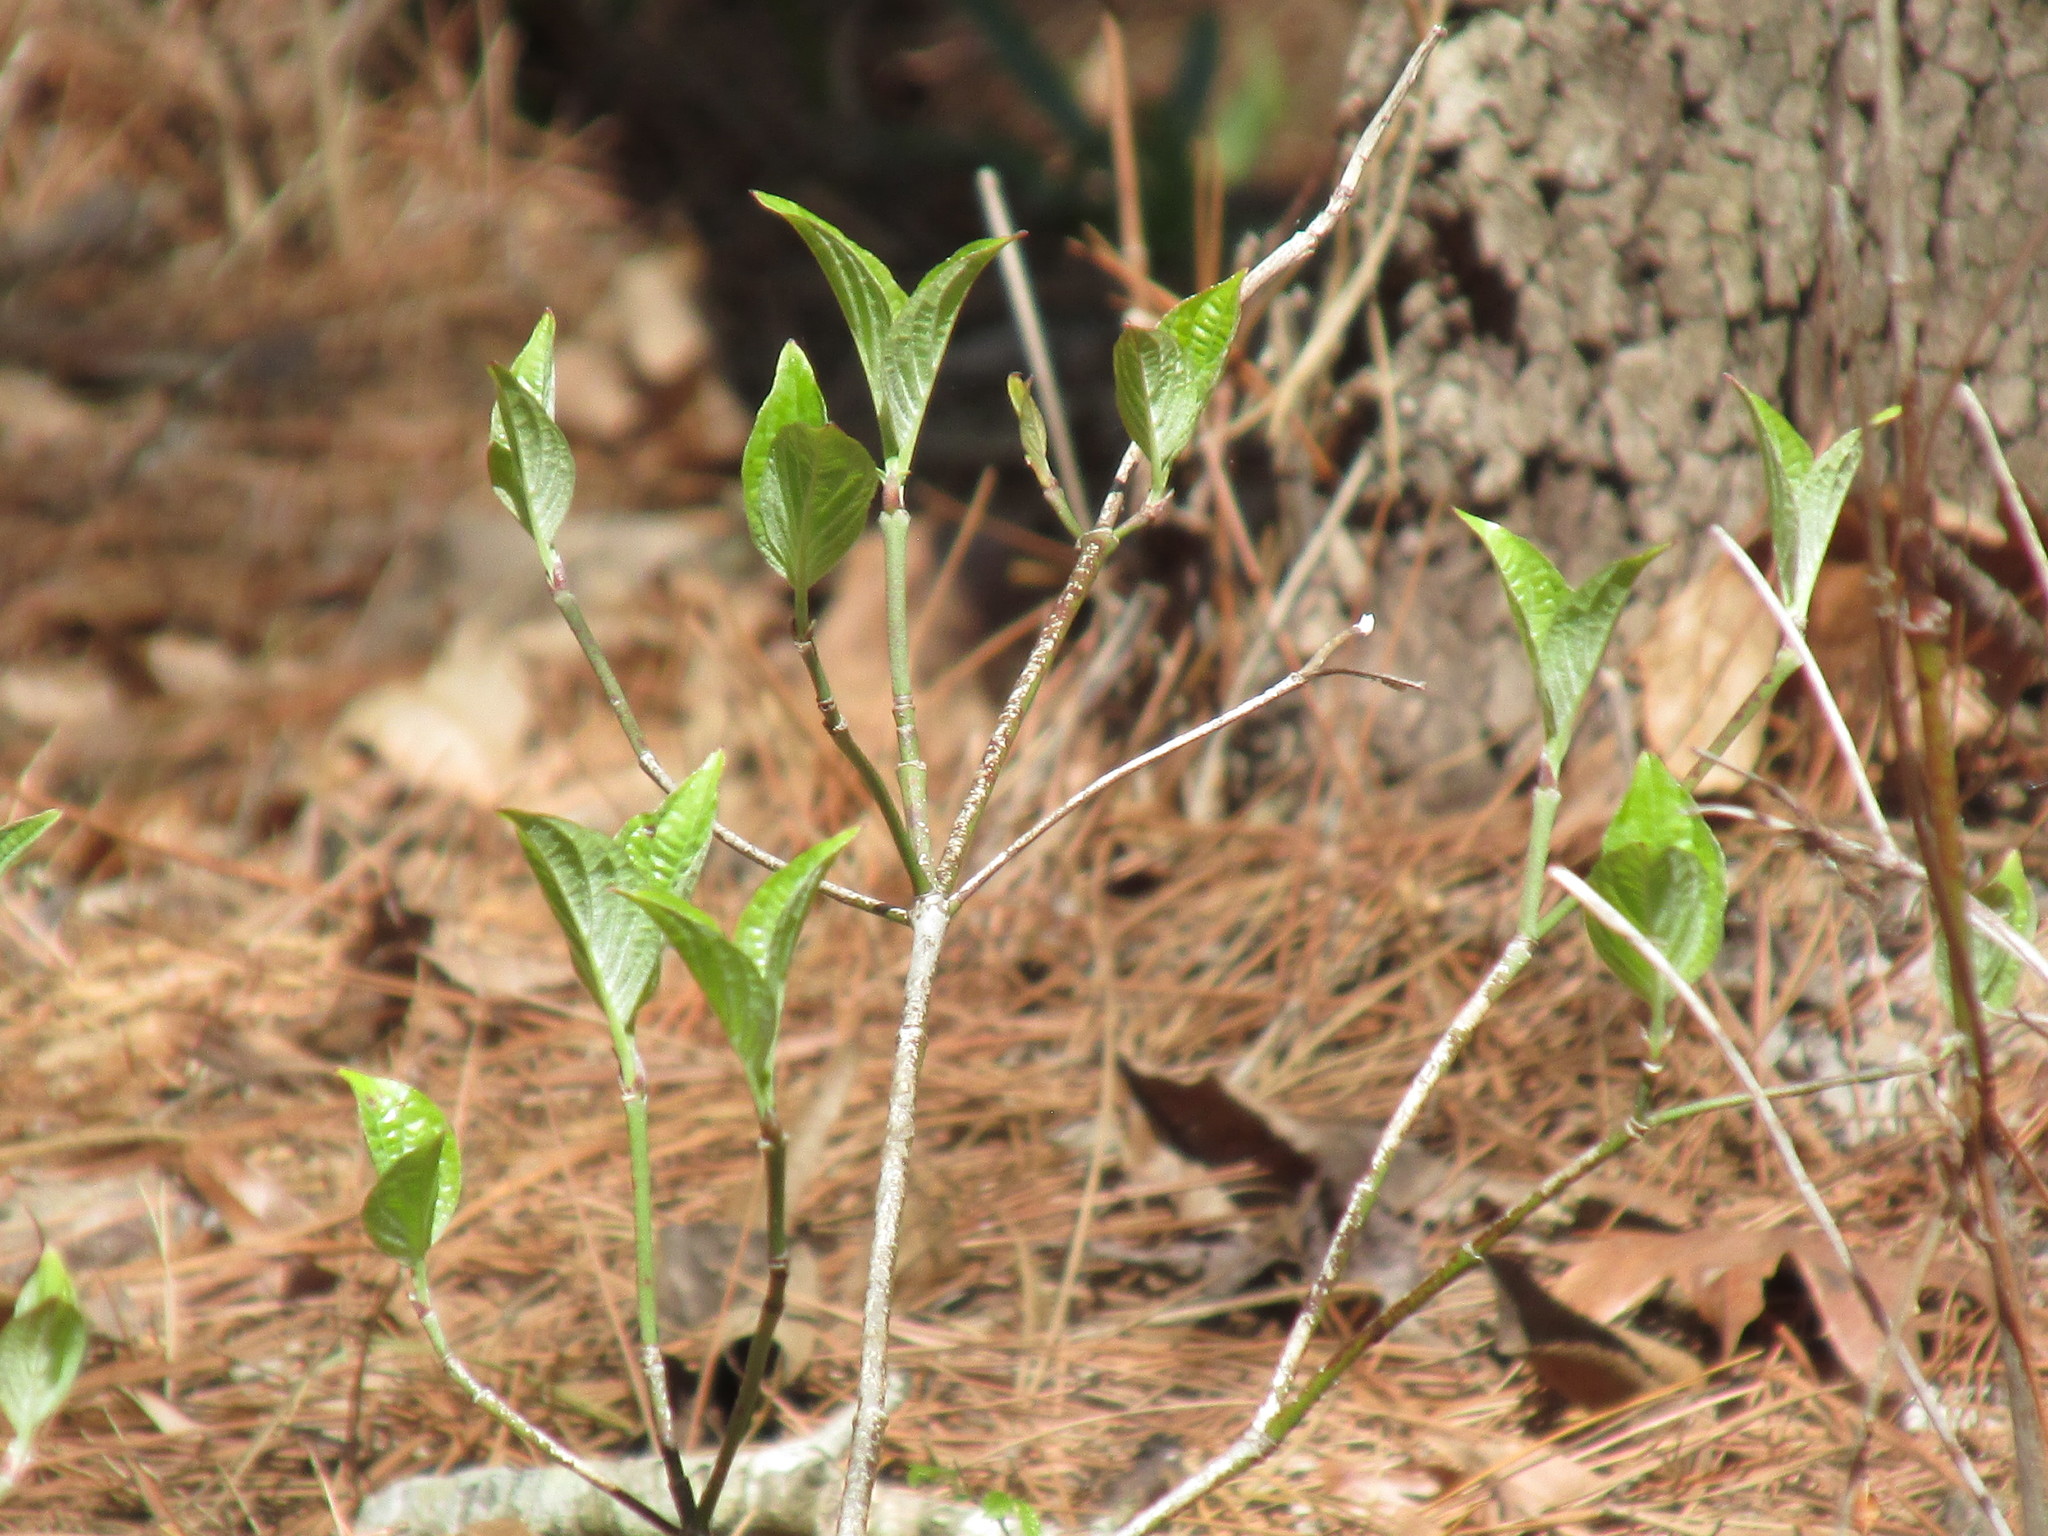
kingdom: Plantae
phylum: Tracheophyta
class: Magnoliopsida
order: Cornales
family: Cornaceae
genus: Cornus
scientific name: Cornus florida
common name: Flowering dogwood
